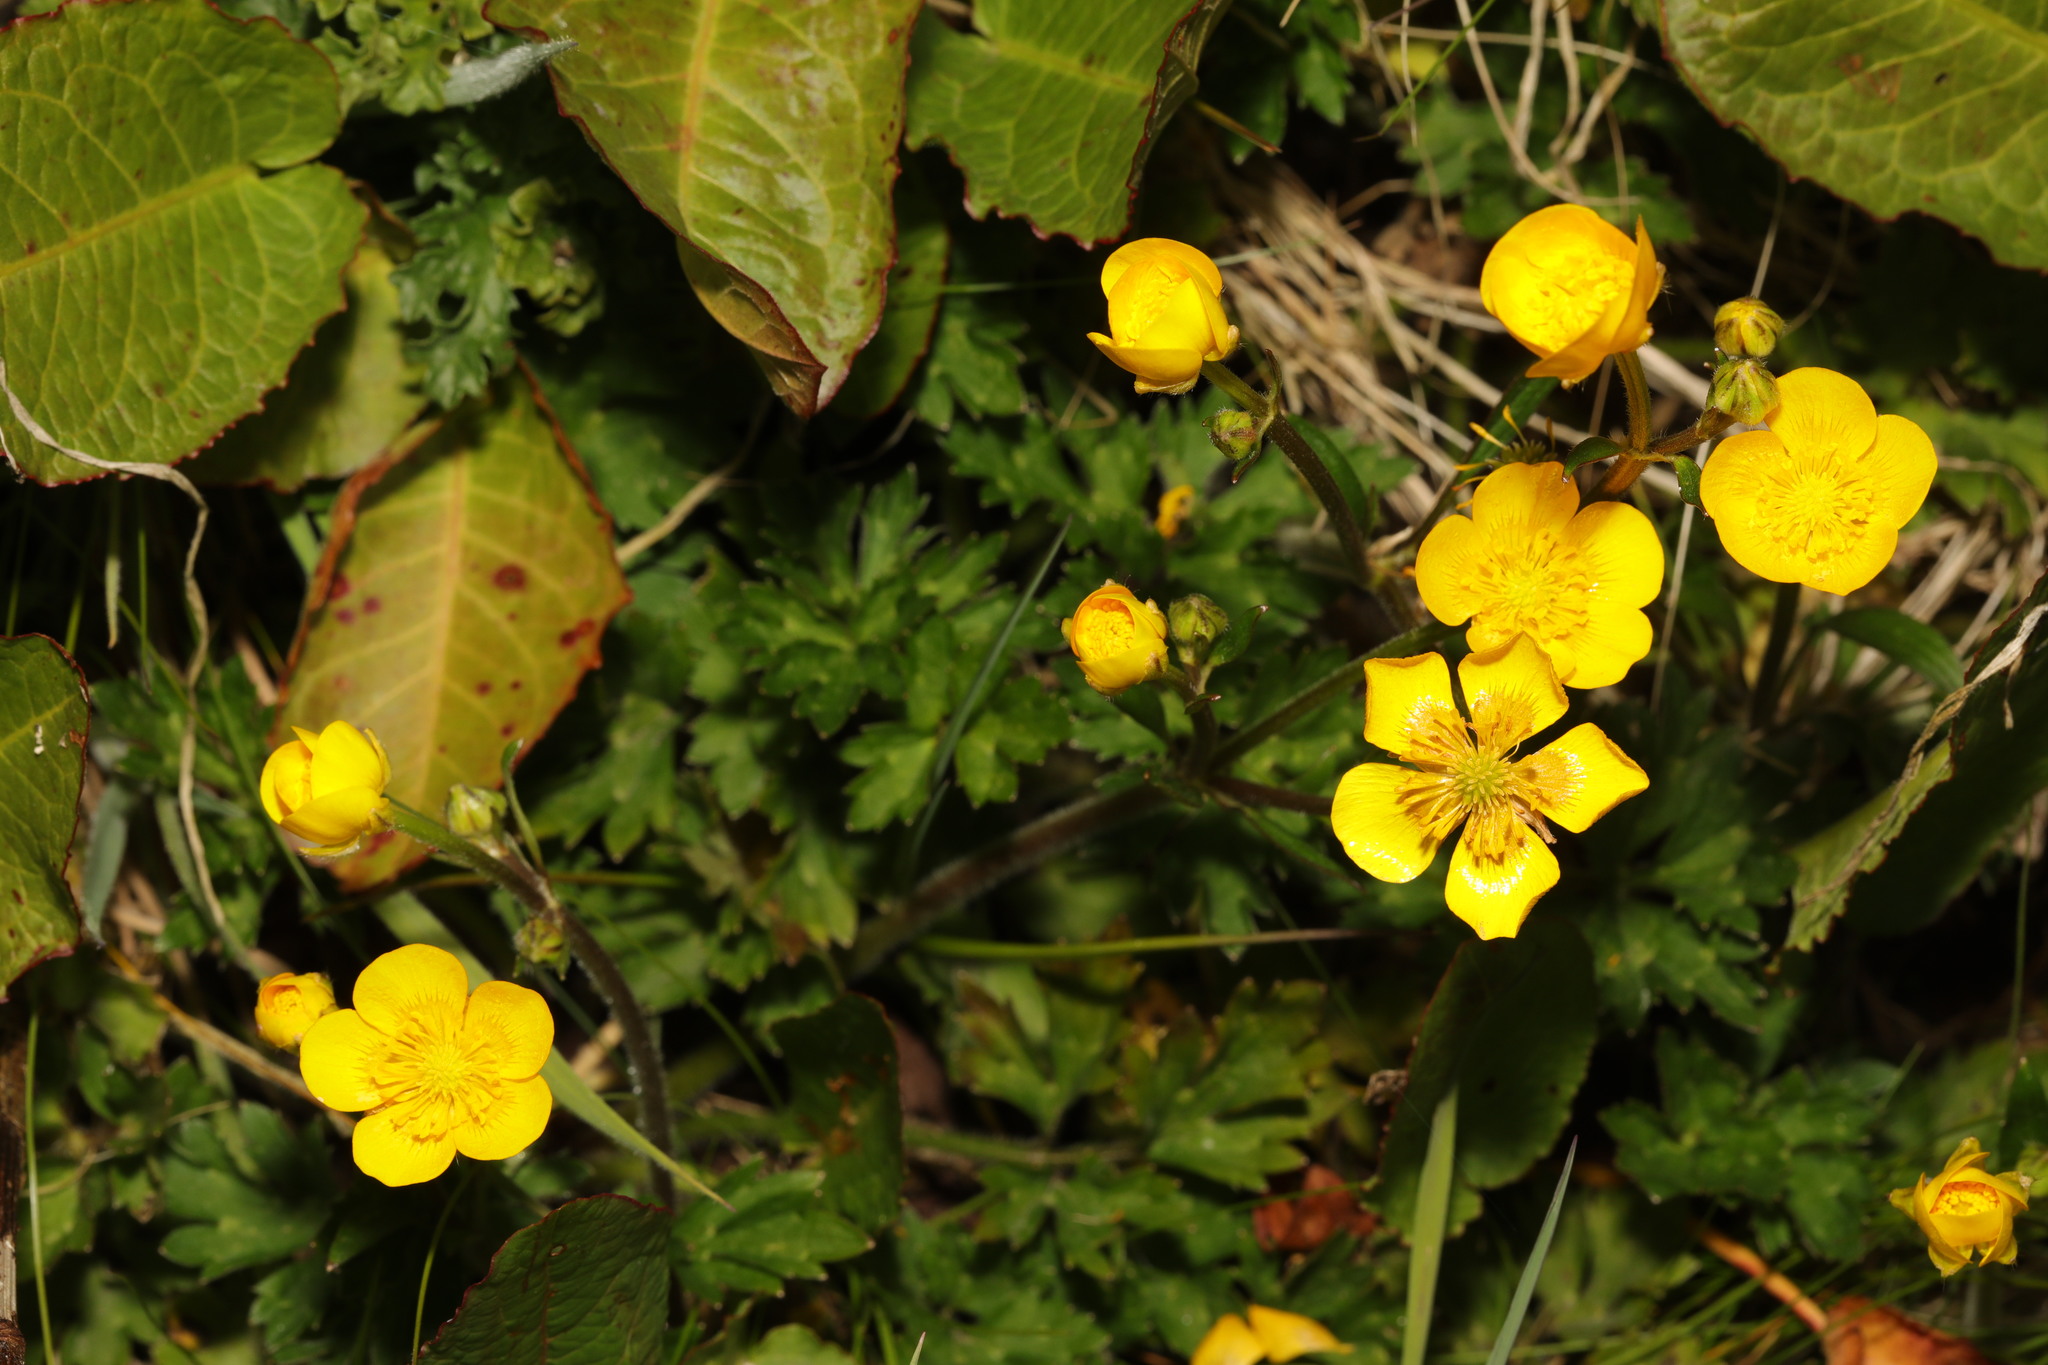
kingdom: Plantae
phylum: Tracheophyta
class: Magnoliopsida
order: Ranunculales
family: Ranunculaceae
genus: Ranunculus
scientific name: Ranunculus repens
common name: Creeping buttercup
